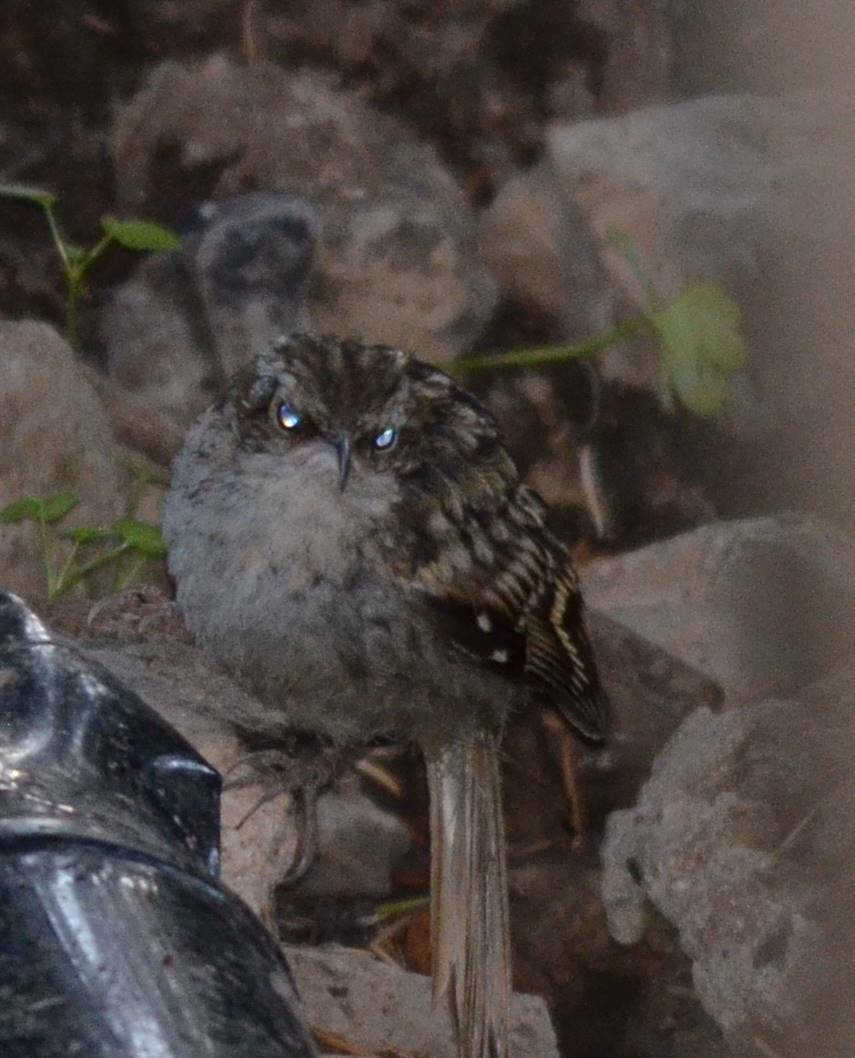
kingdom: Animalia
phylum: Chordata
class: Aves
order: Passeriformes
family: Certhiidae
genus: Certhia
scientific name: Certhia brachydactyla
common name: Short-toed treecreeper
